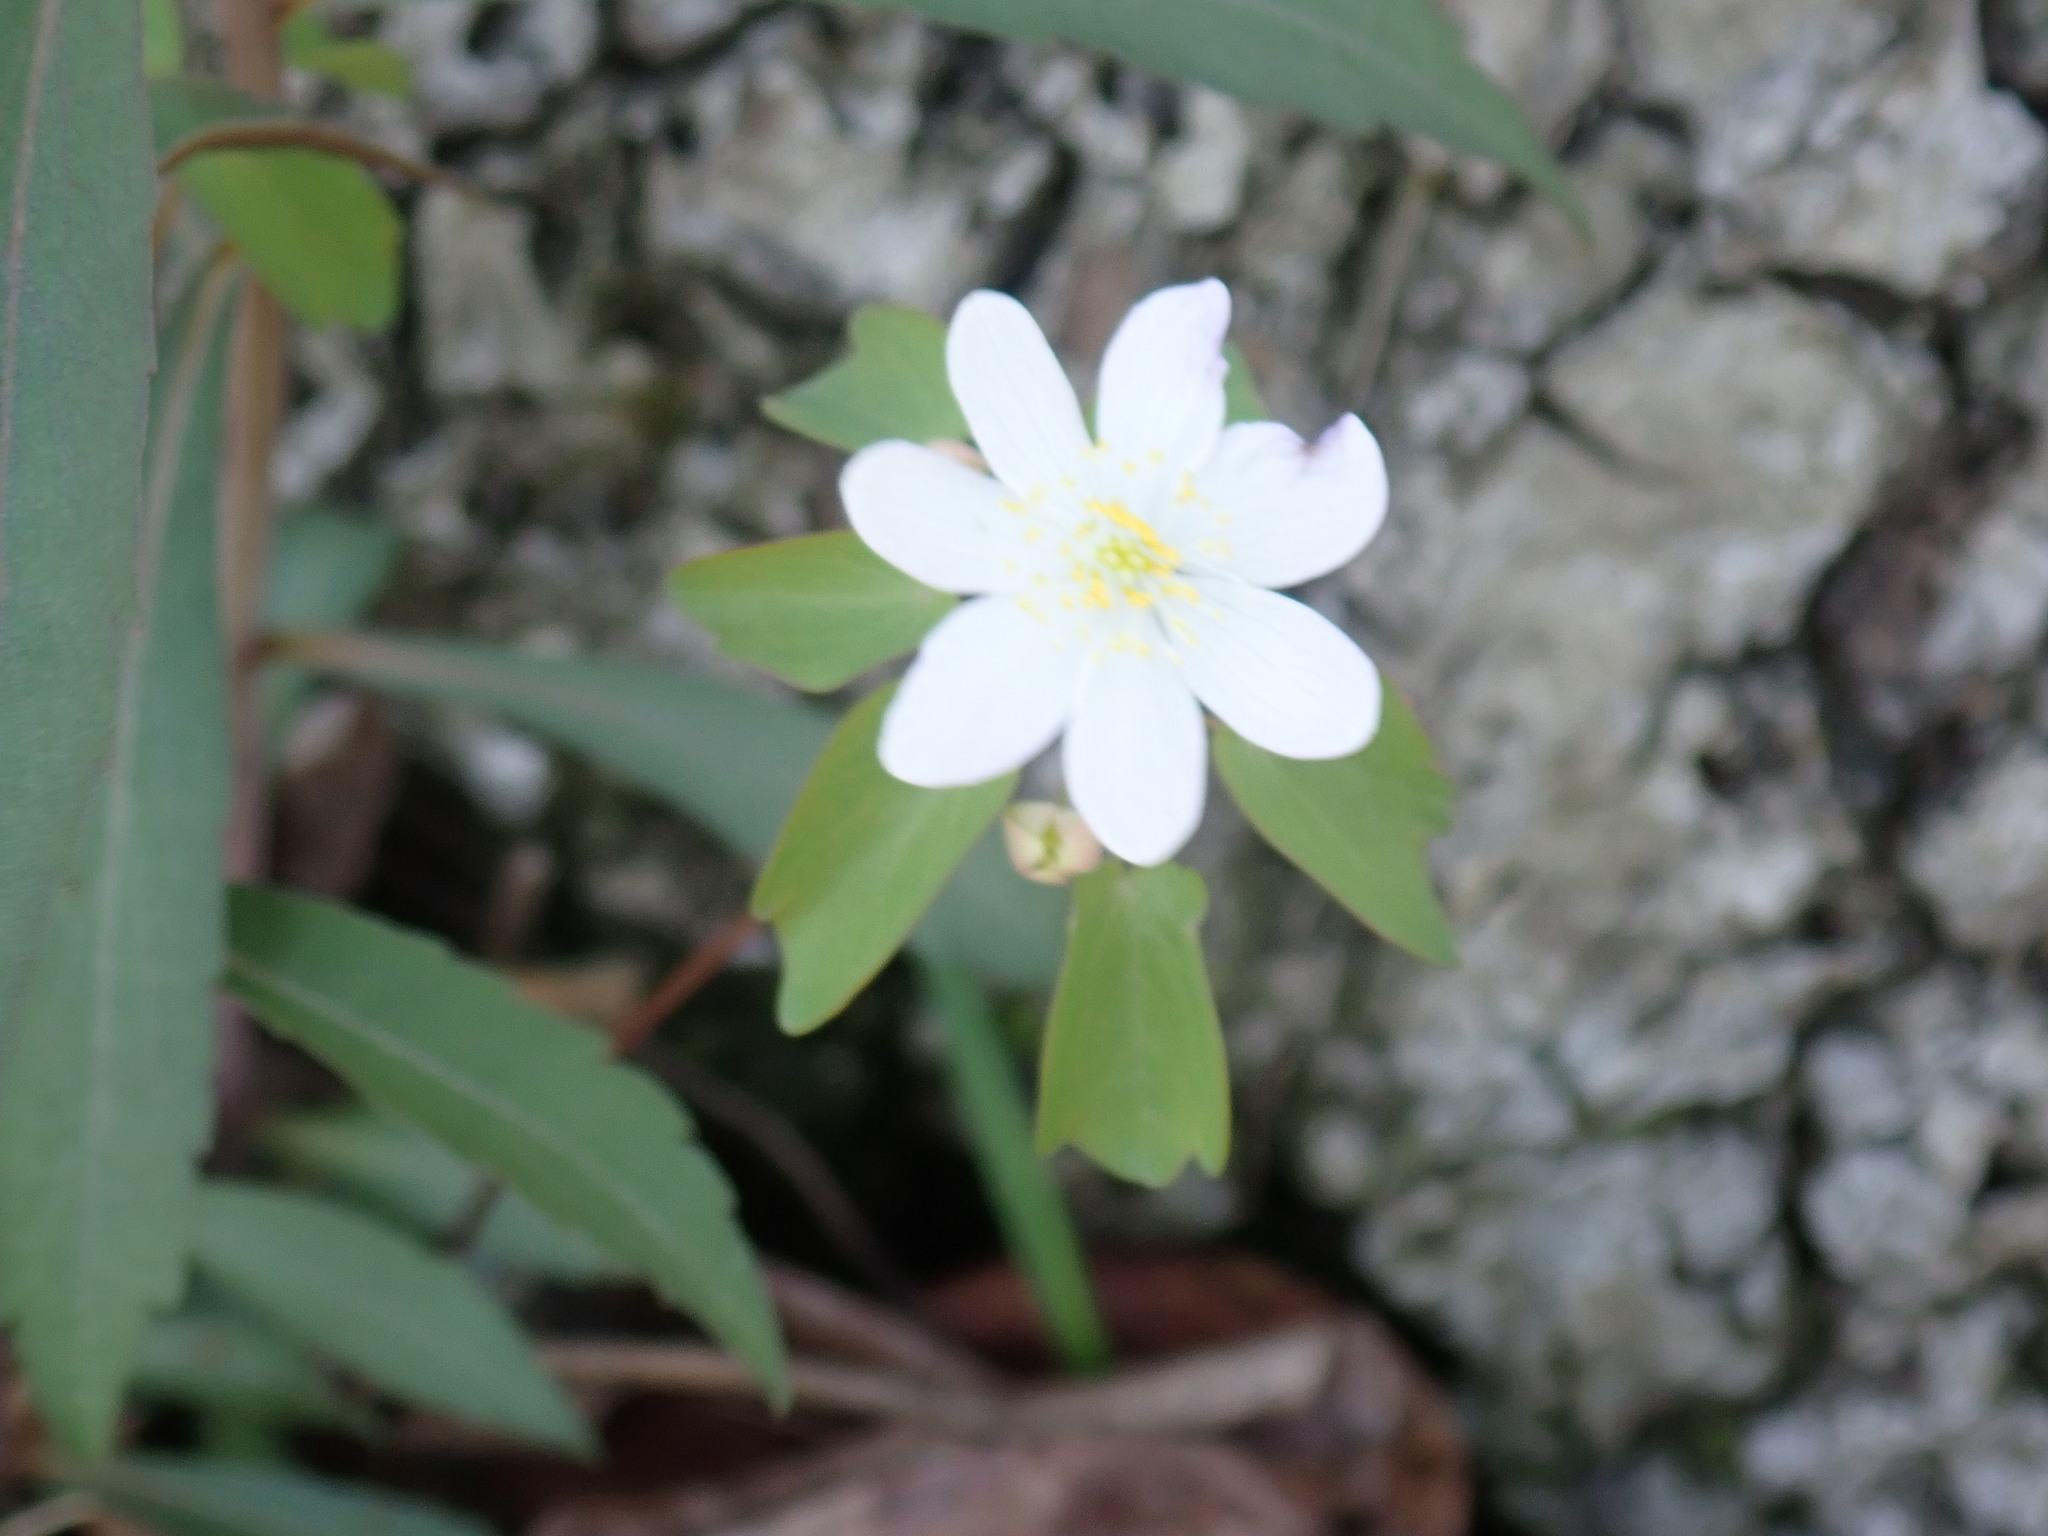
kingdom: Plantae
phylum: Tracheophyta
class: Magnoliopsida
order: Ranunculales
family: Ranunculaceae
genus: Thalictrum
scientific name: Thalictrum thalictroides
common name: Rue-anemone
